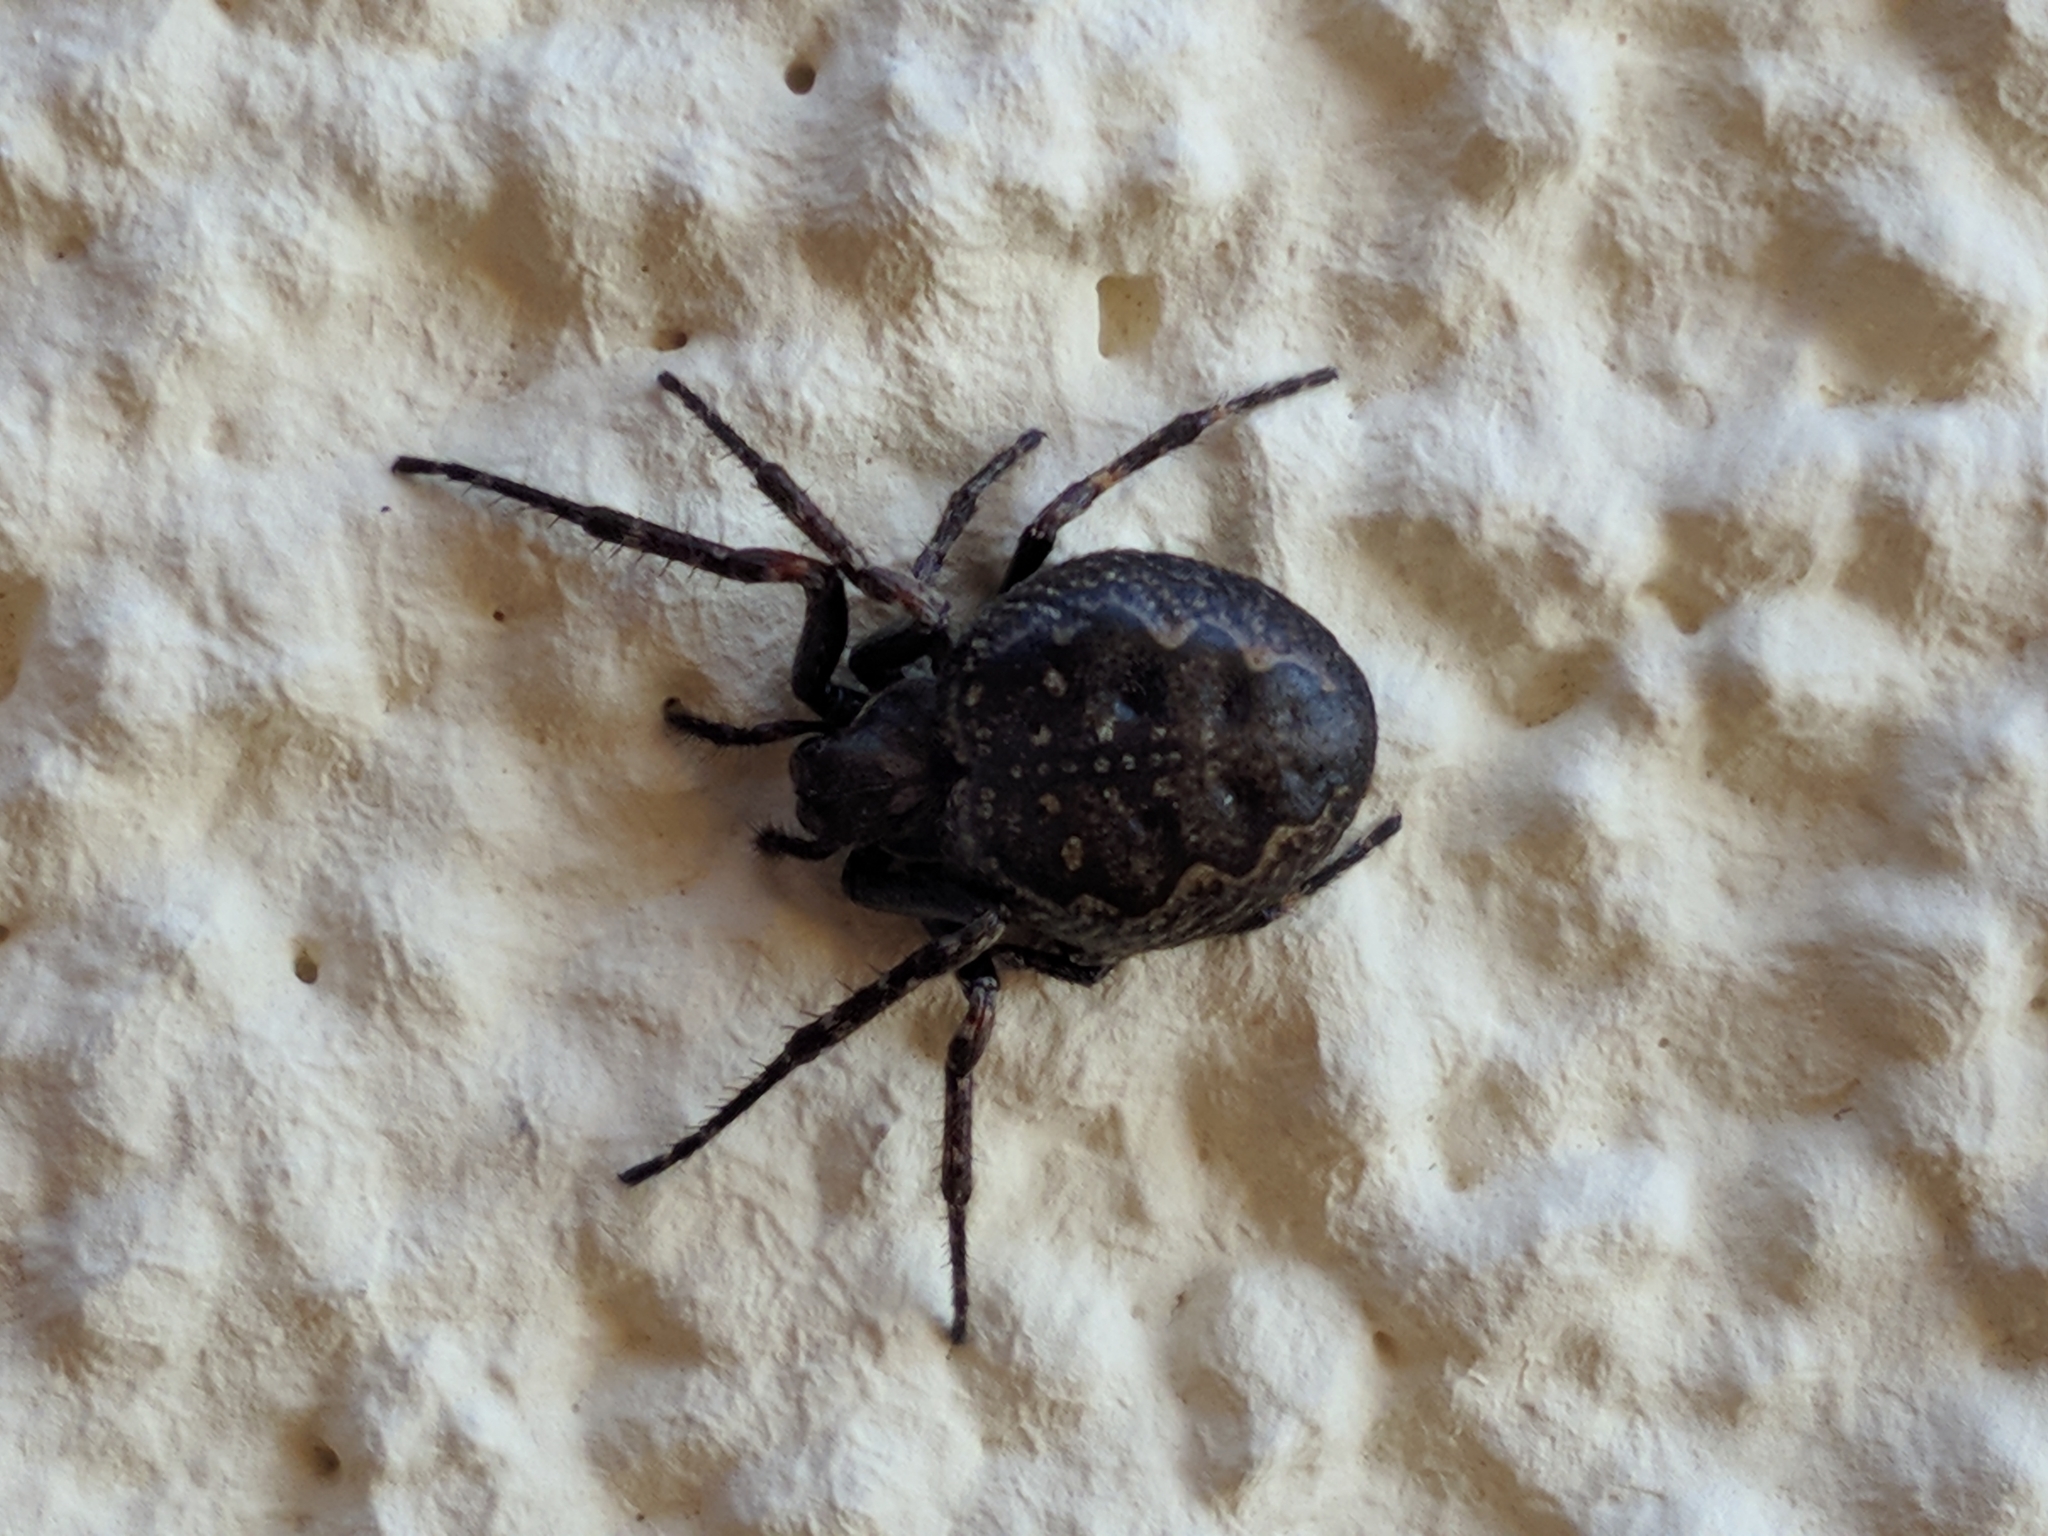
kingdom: Animalia
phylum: Arthropoda
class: Arachnida
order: Araneae
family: Araneidae
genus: Nuctenea
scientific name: Nuctenea umbratica
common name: Toad spider
